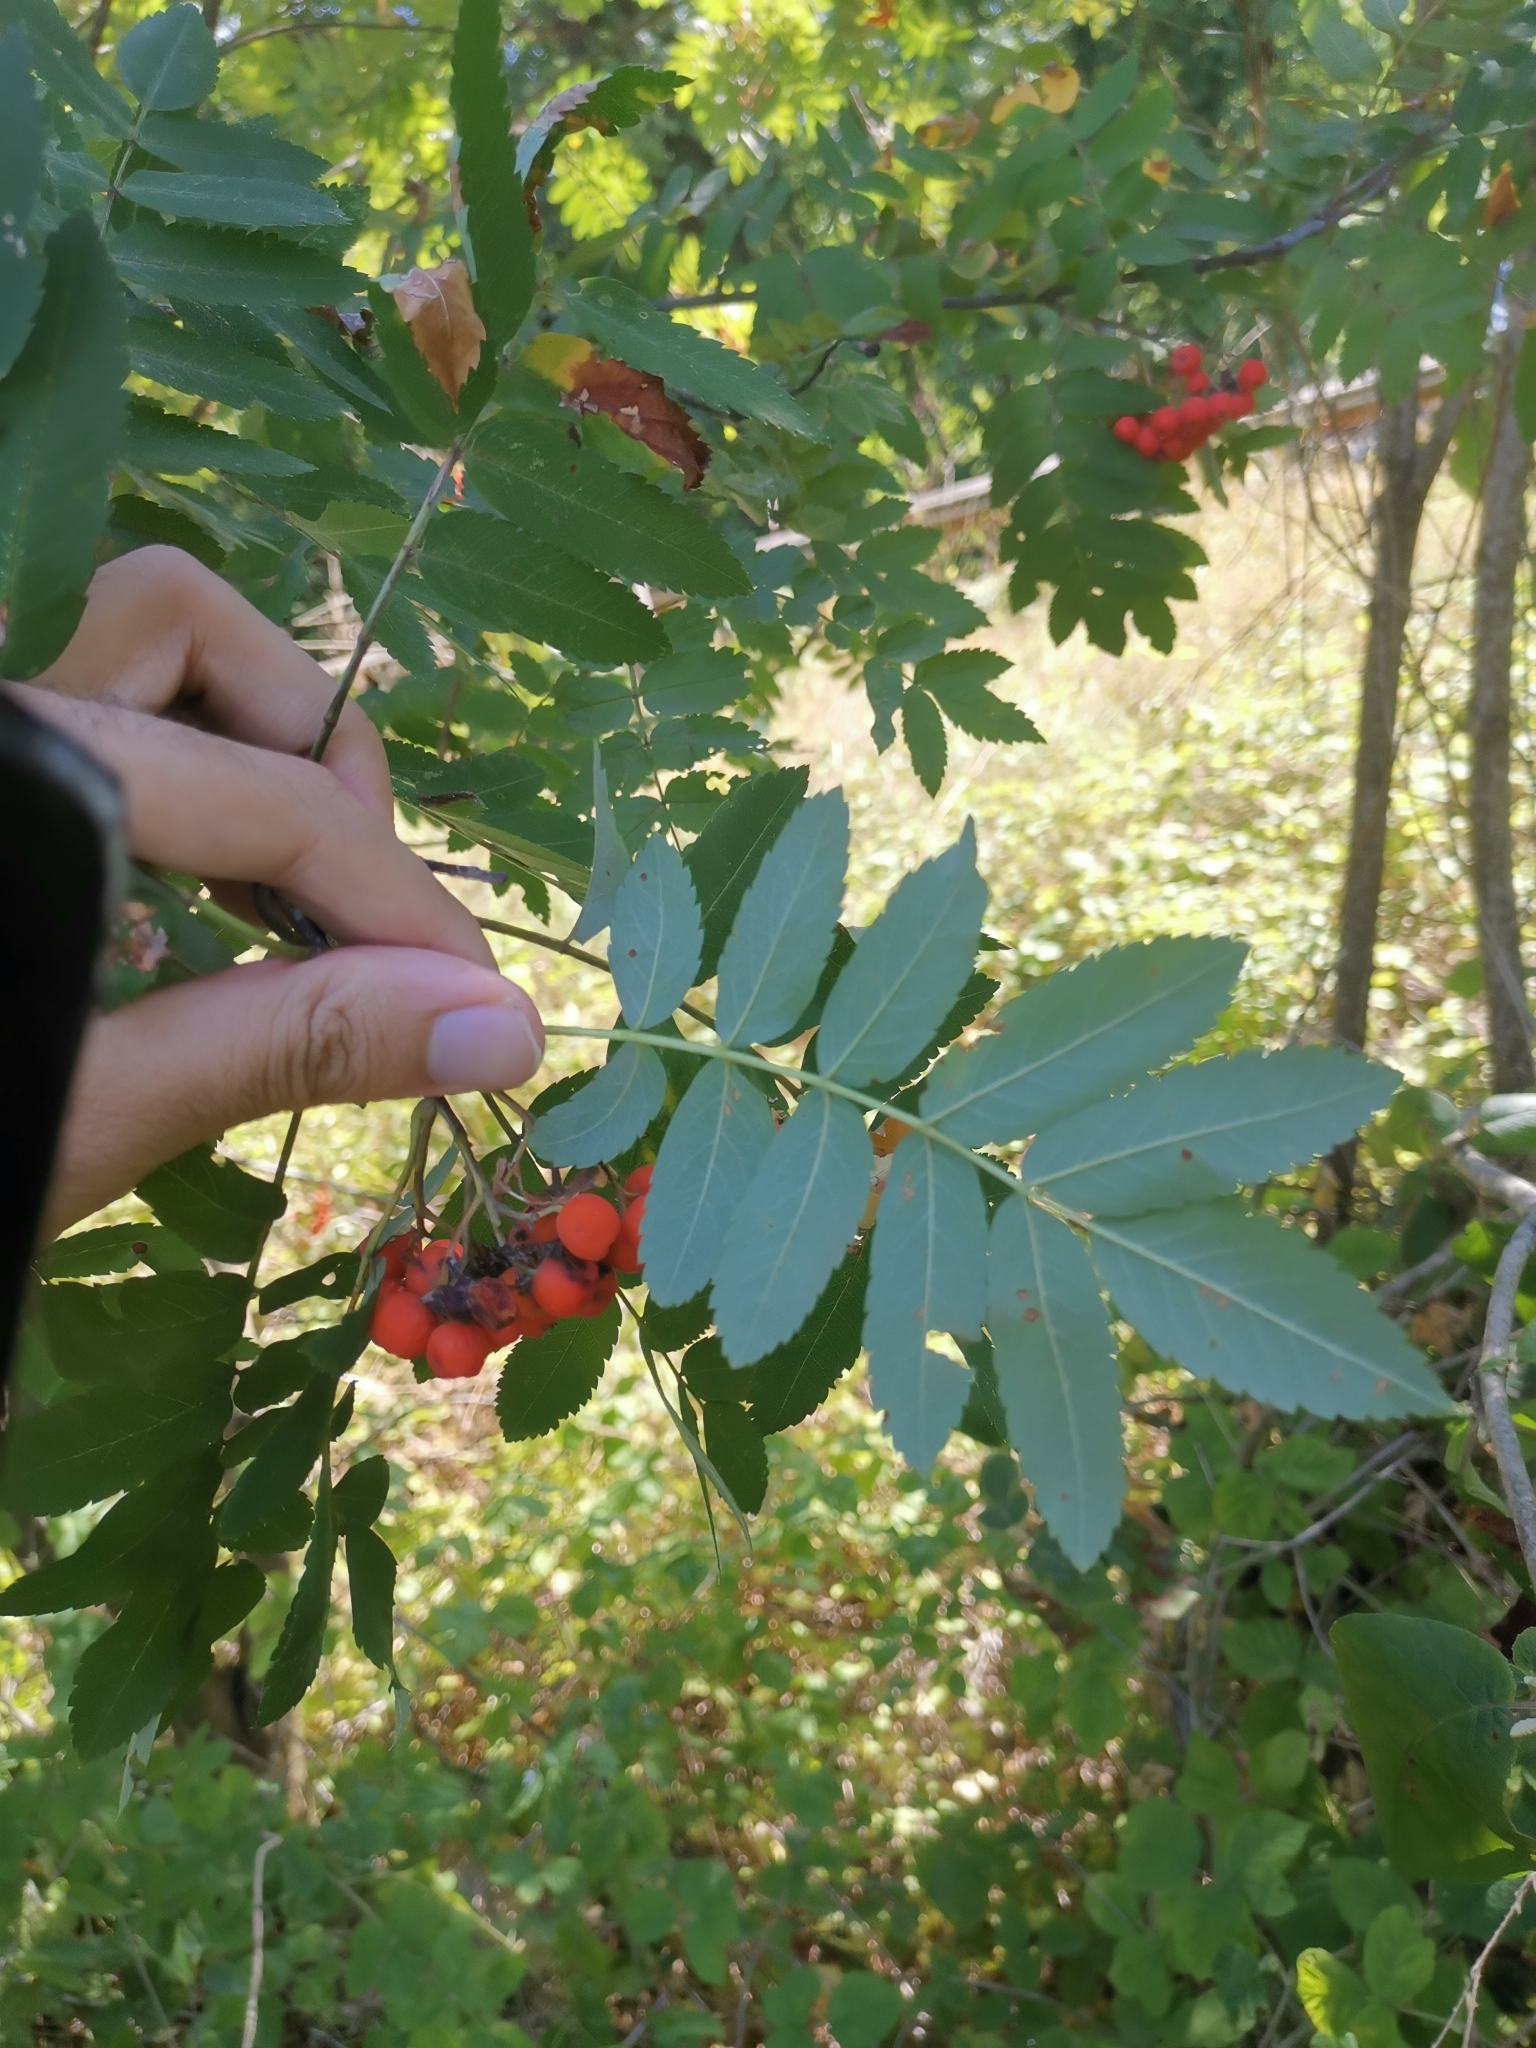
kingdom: Plantae
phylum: Tracheophyta
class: Magnoliopsida
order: Rosales
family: Rosaceae
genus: Sorbus
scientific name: Sorbus aucuparia
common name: Rowan
